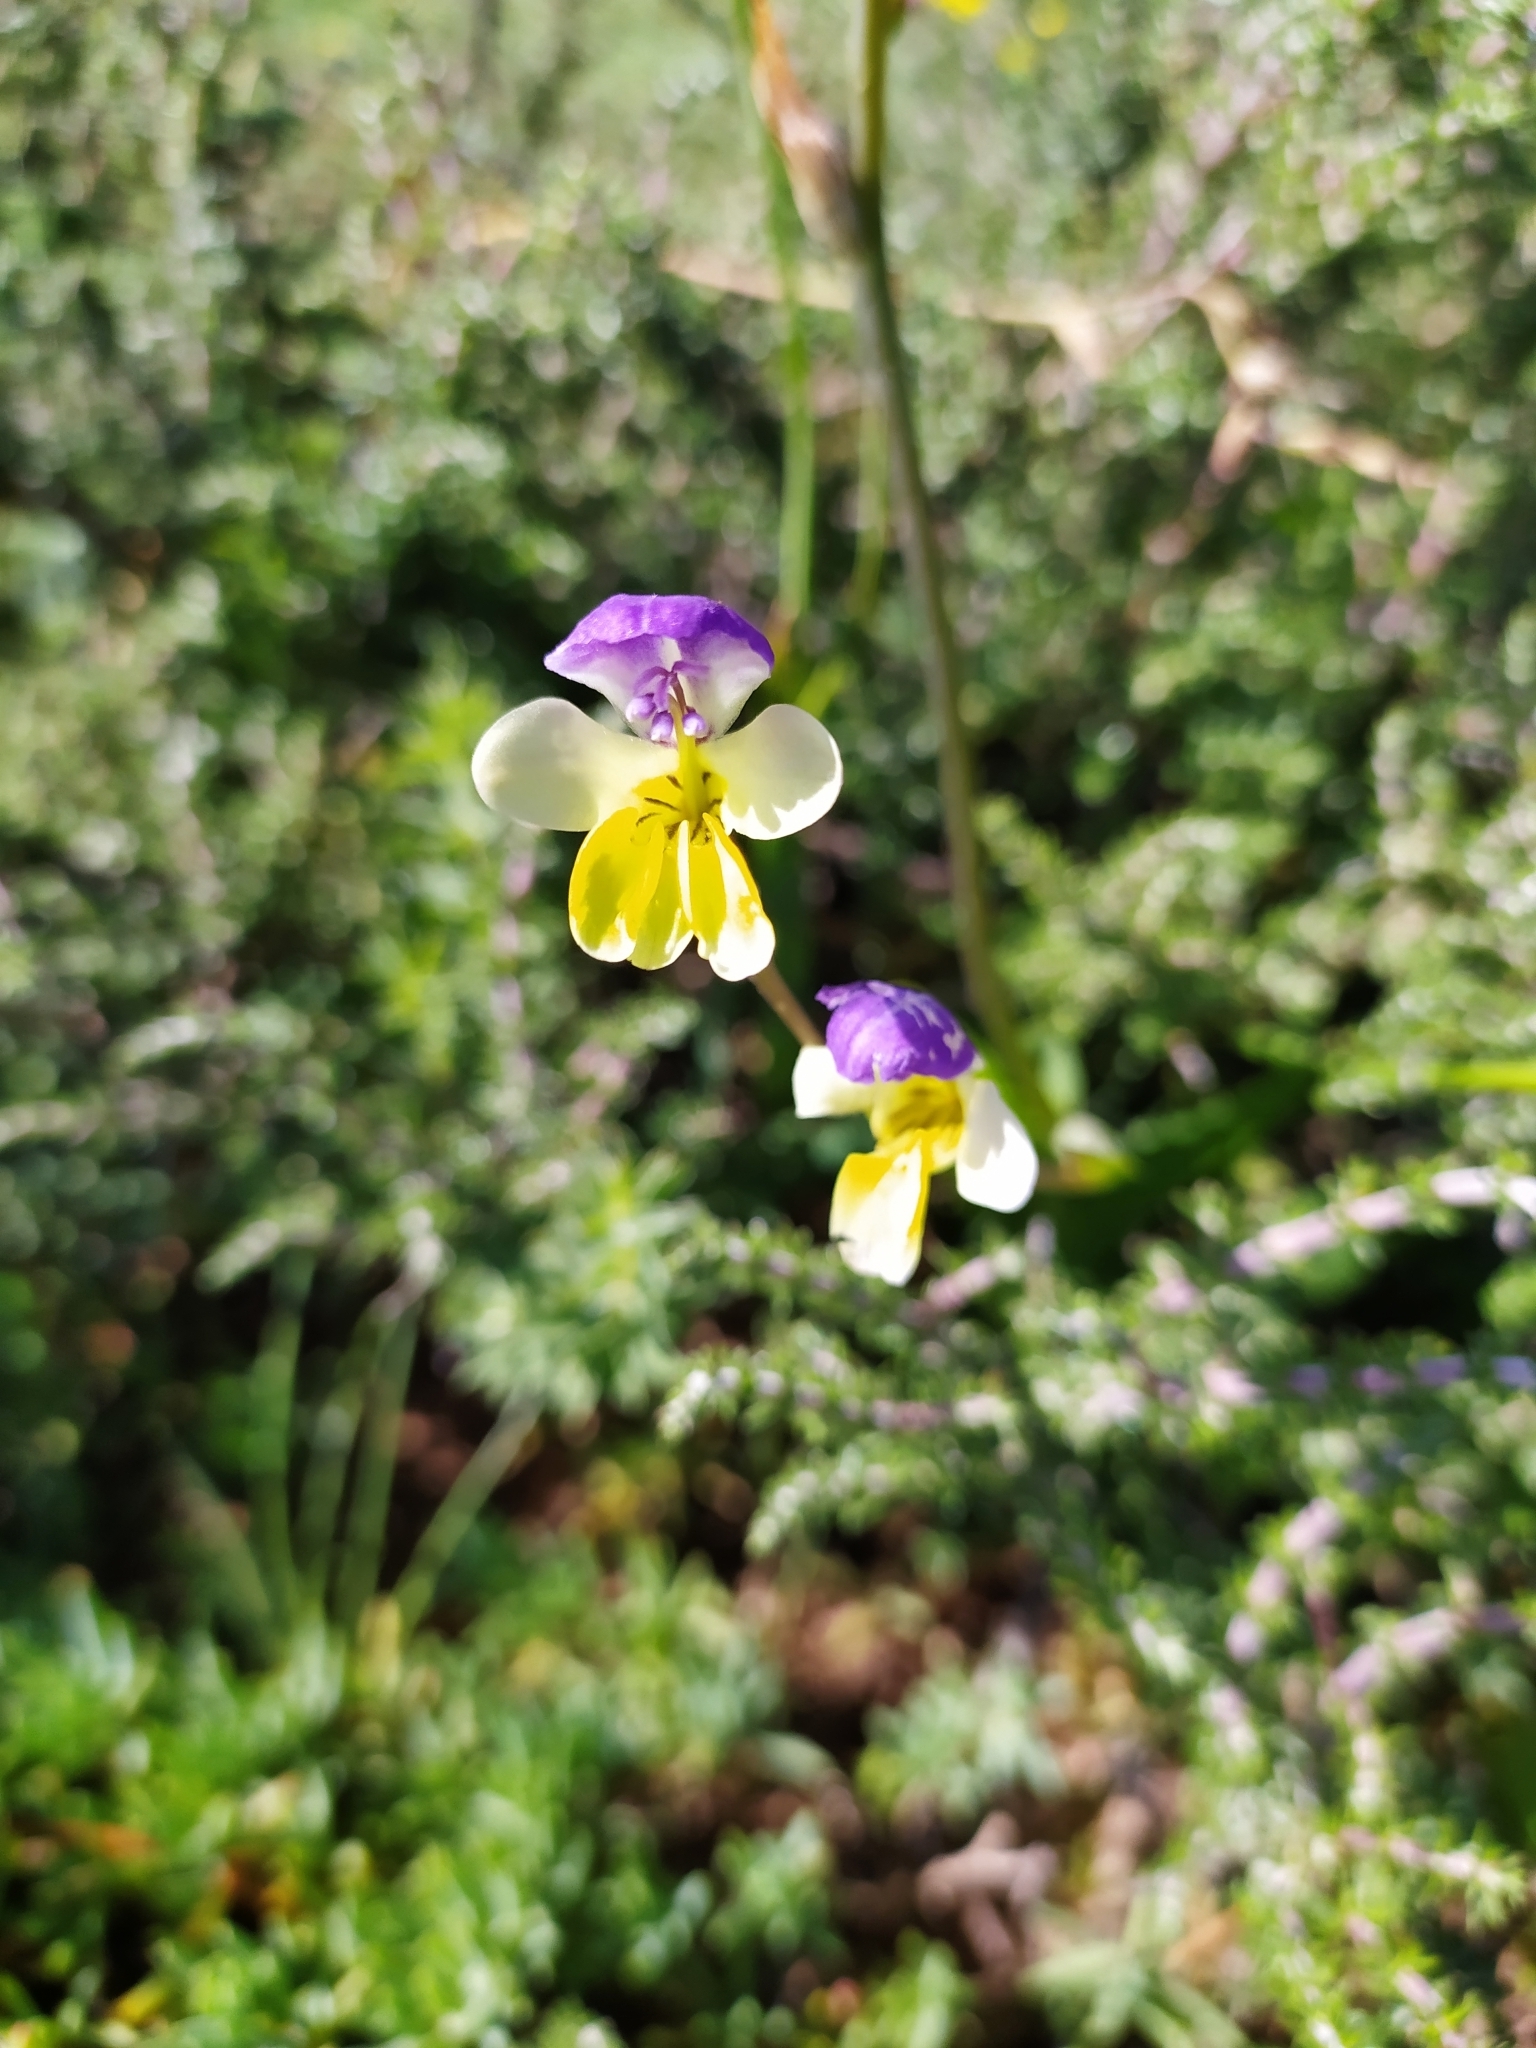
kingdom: Plantae
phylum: Tracheophyta
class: Liliopsida
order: Asparagales
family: Iridaceae
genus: Sparaxis
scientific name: Sparaxis villosa
